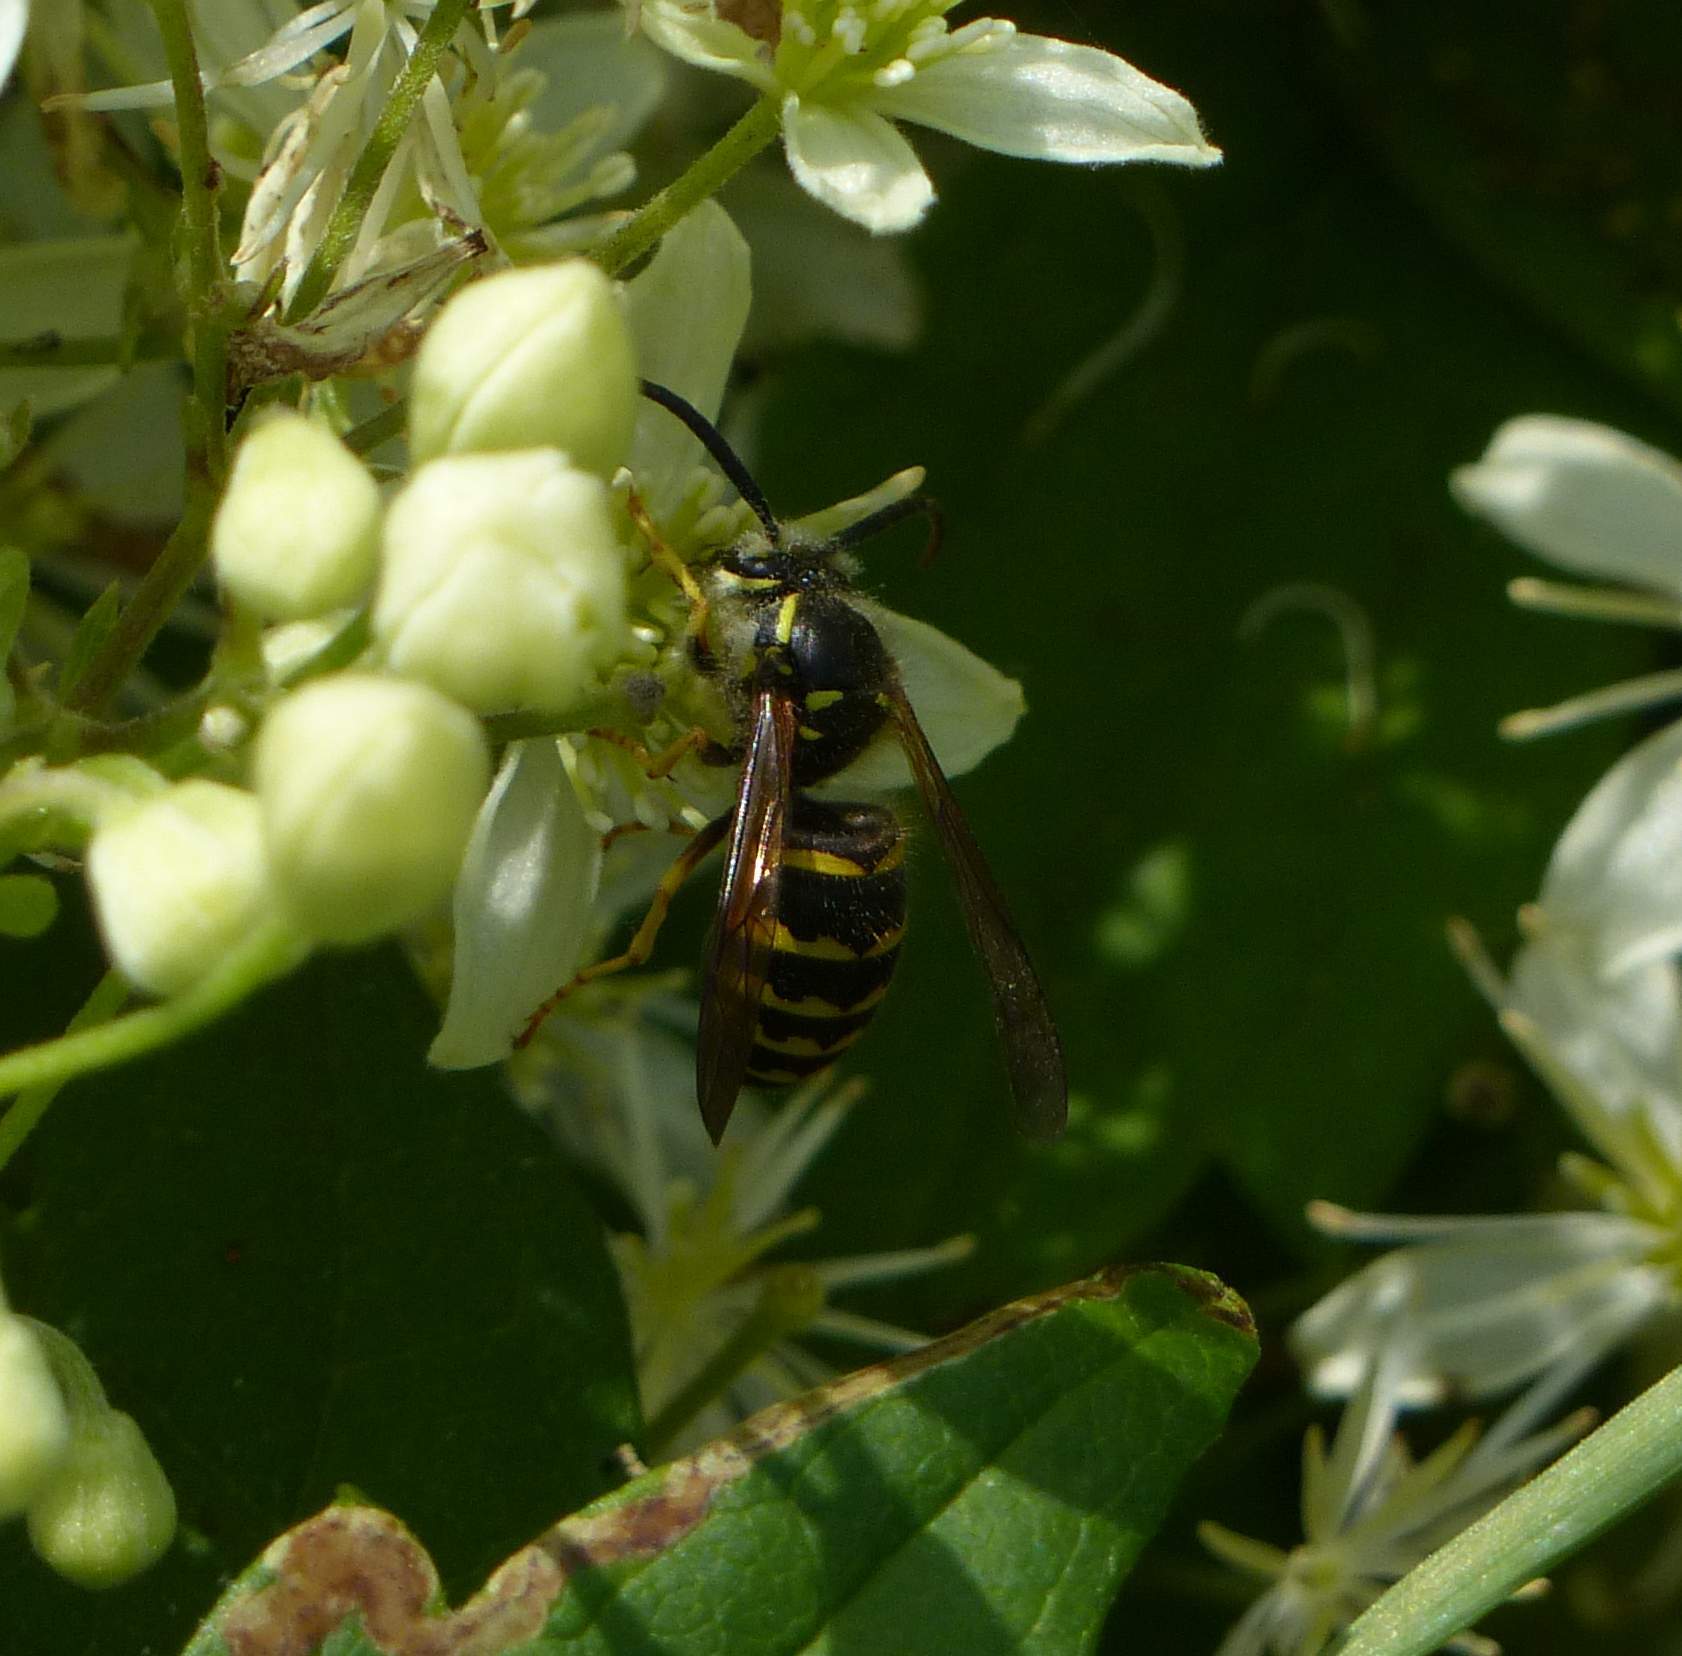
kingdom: Animalia
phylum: Arthropoda
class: Insecta
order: Hymenoptera
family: Vespidae
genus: Dolichovespula
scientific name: Dolichovespula arenaria
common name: Aerial yellowjacket
